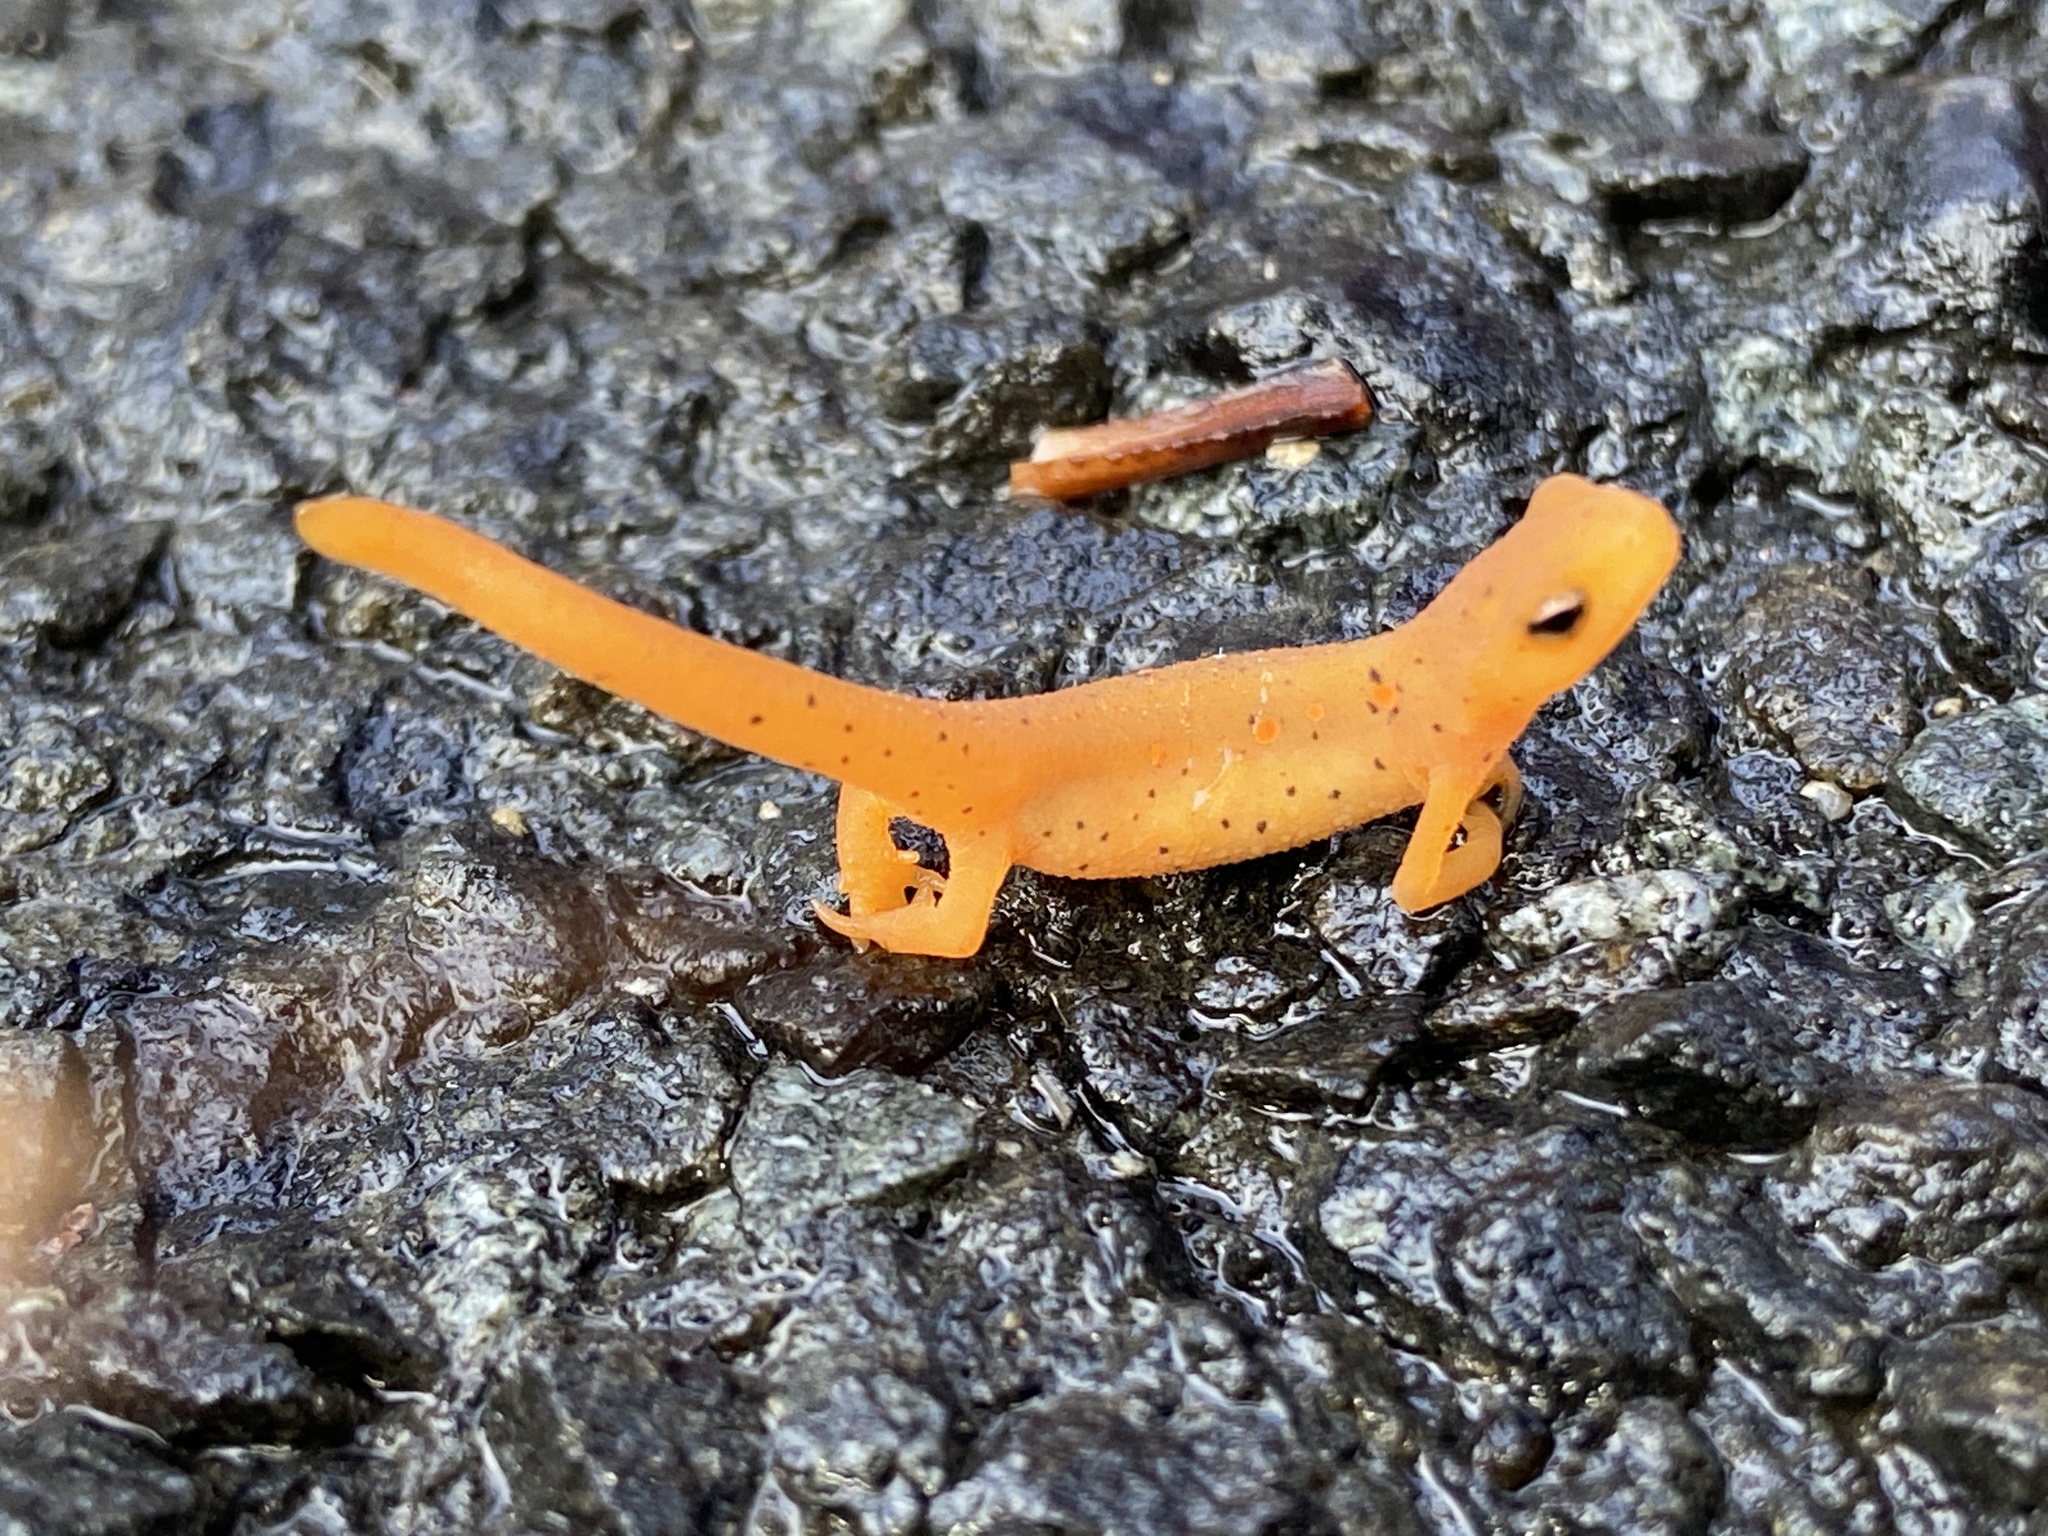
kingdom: Animalia
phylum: Chordata
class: Amphibia
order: Caudata
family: Salamandridae
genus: Notophthalmus
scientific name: Notophthalmus viridescens
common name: Eastern newt
